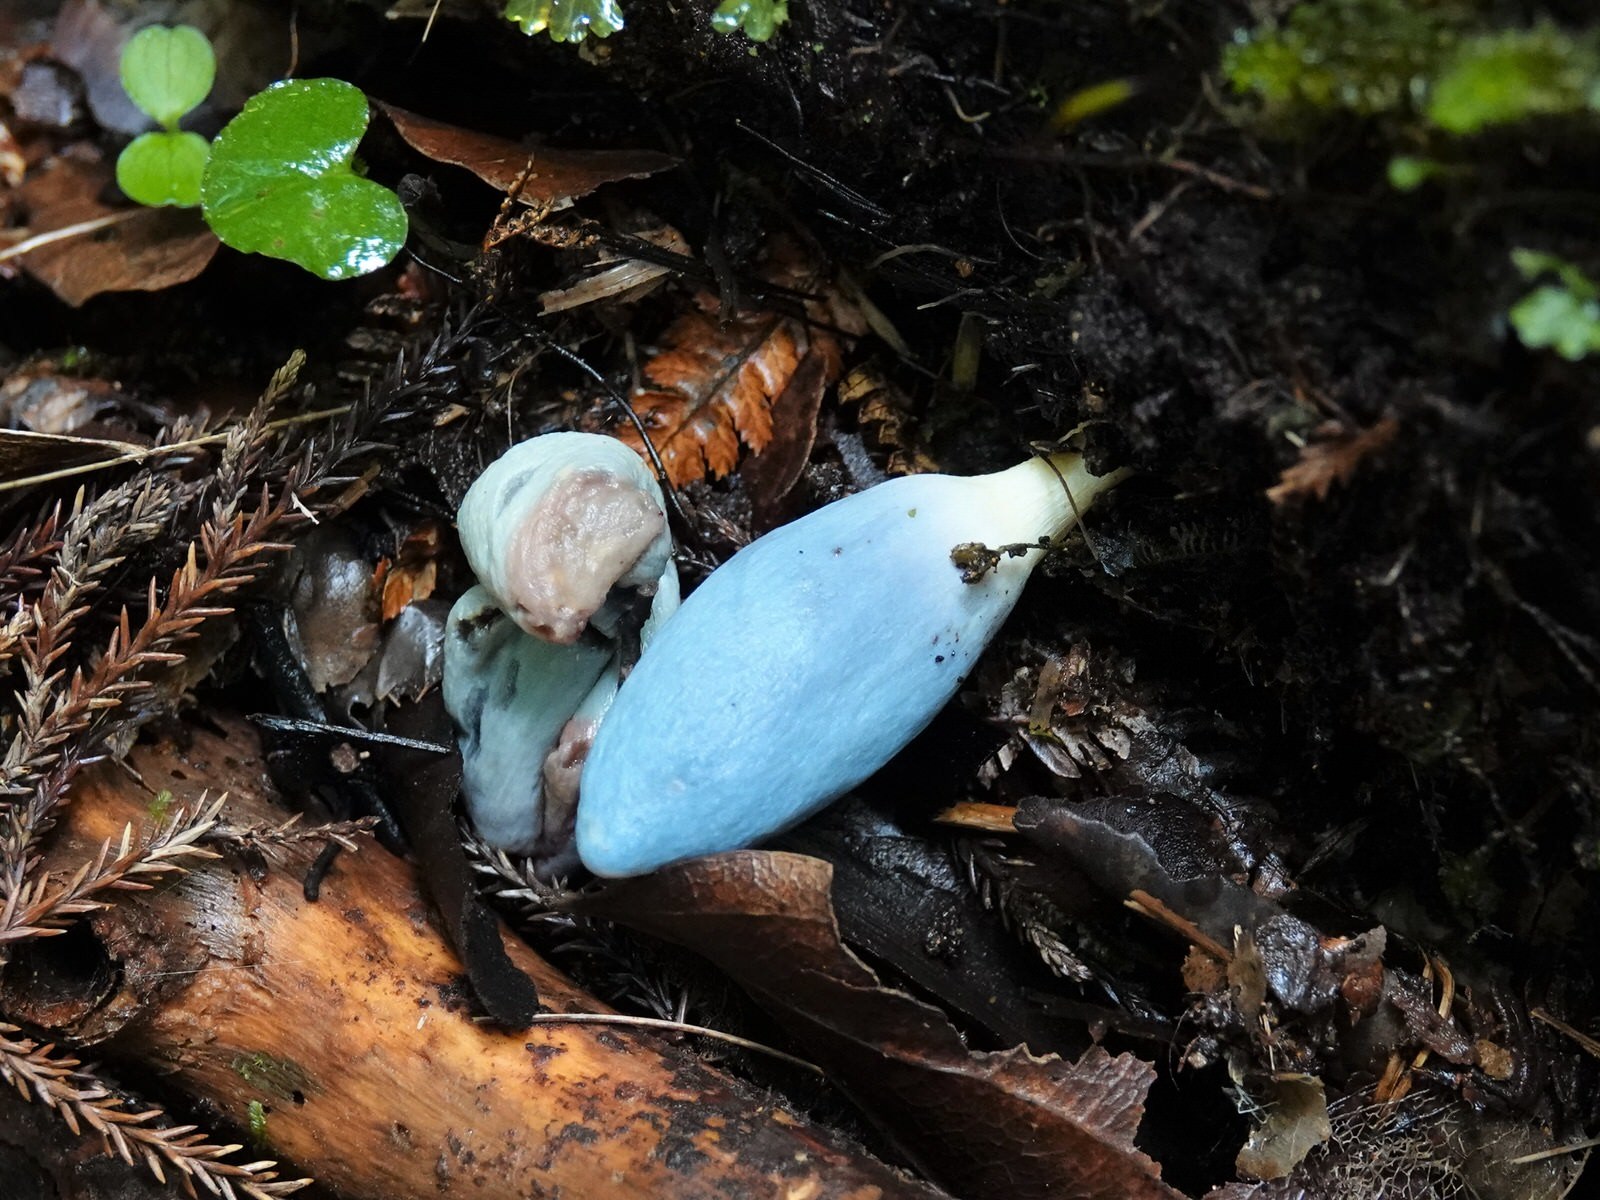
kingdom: Fungi
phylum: Basidiomycota
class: Agaricomycetes
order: Agaricales
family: Agaricaceae
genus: Clavogaster
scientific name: Clavogaster virescens
